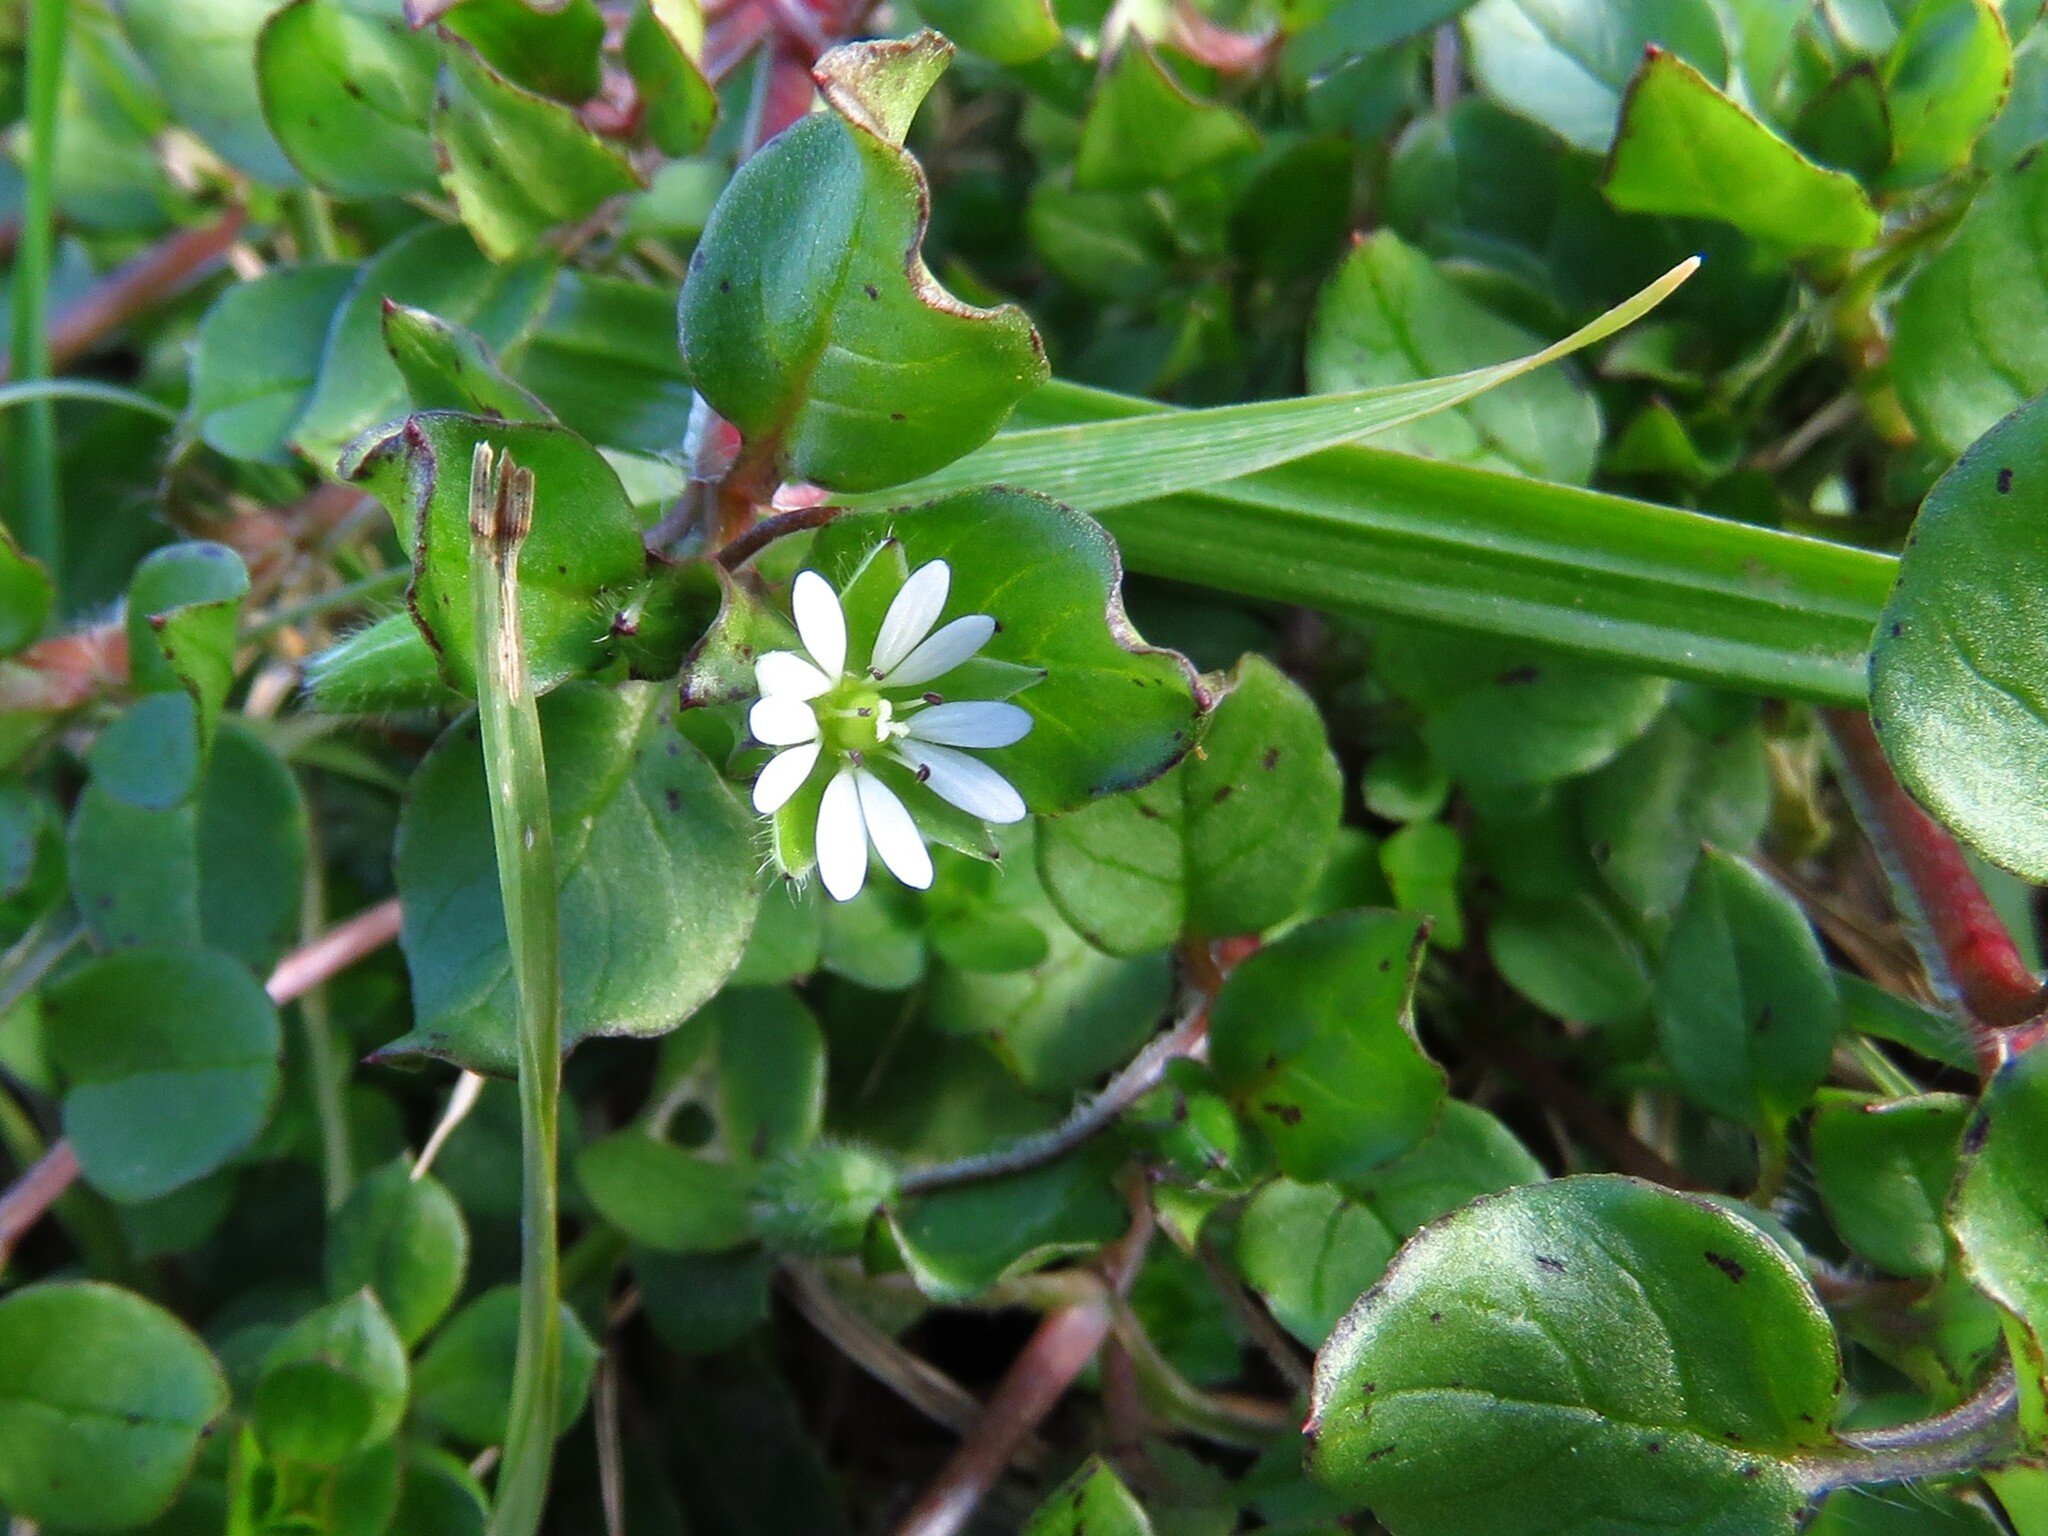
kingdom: Plantae
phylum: Tracheophyta
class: Magnoliopsida
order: Caryophyllales
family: Caryophyllaceae
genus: Stellaria
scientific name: Stellaria media
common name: Common chickweed
